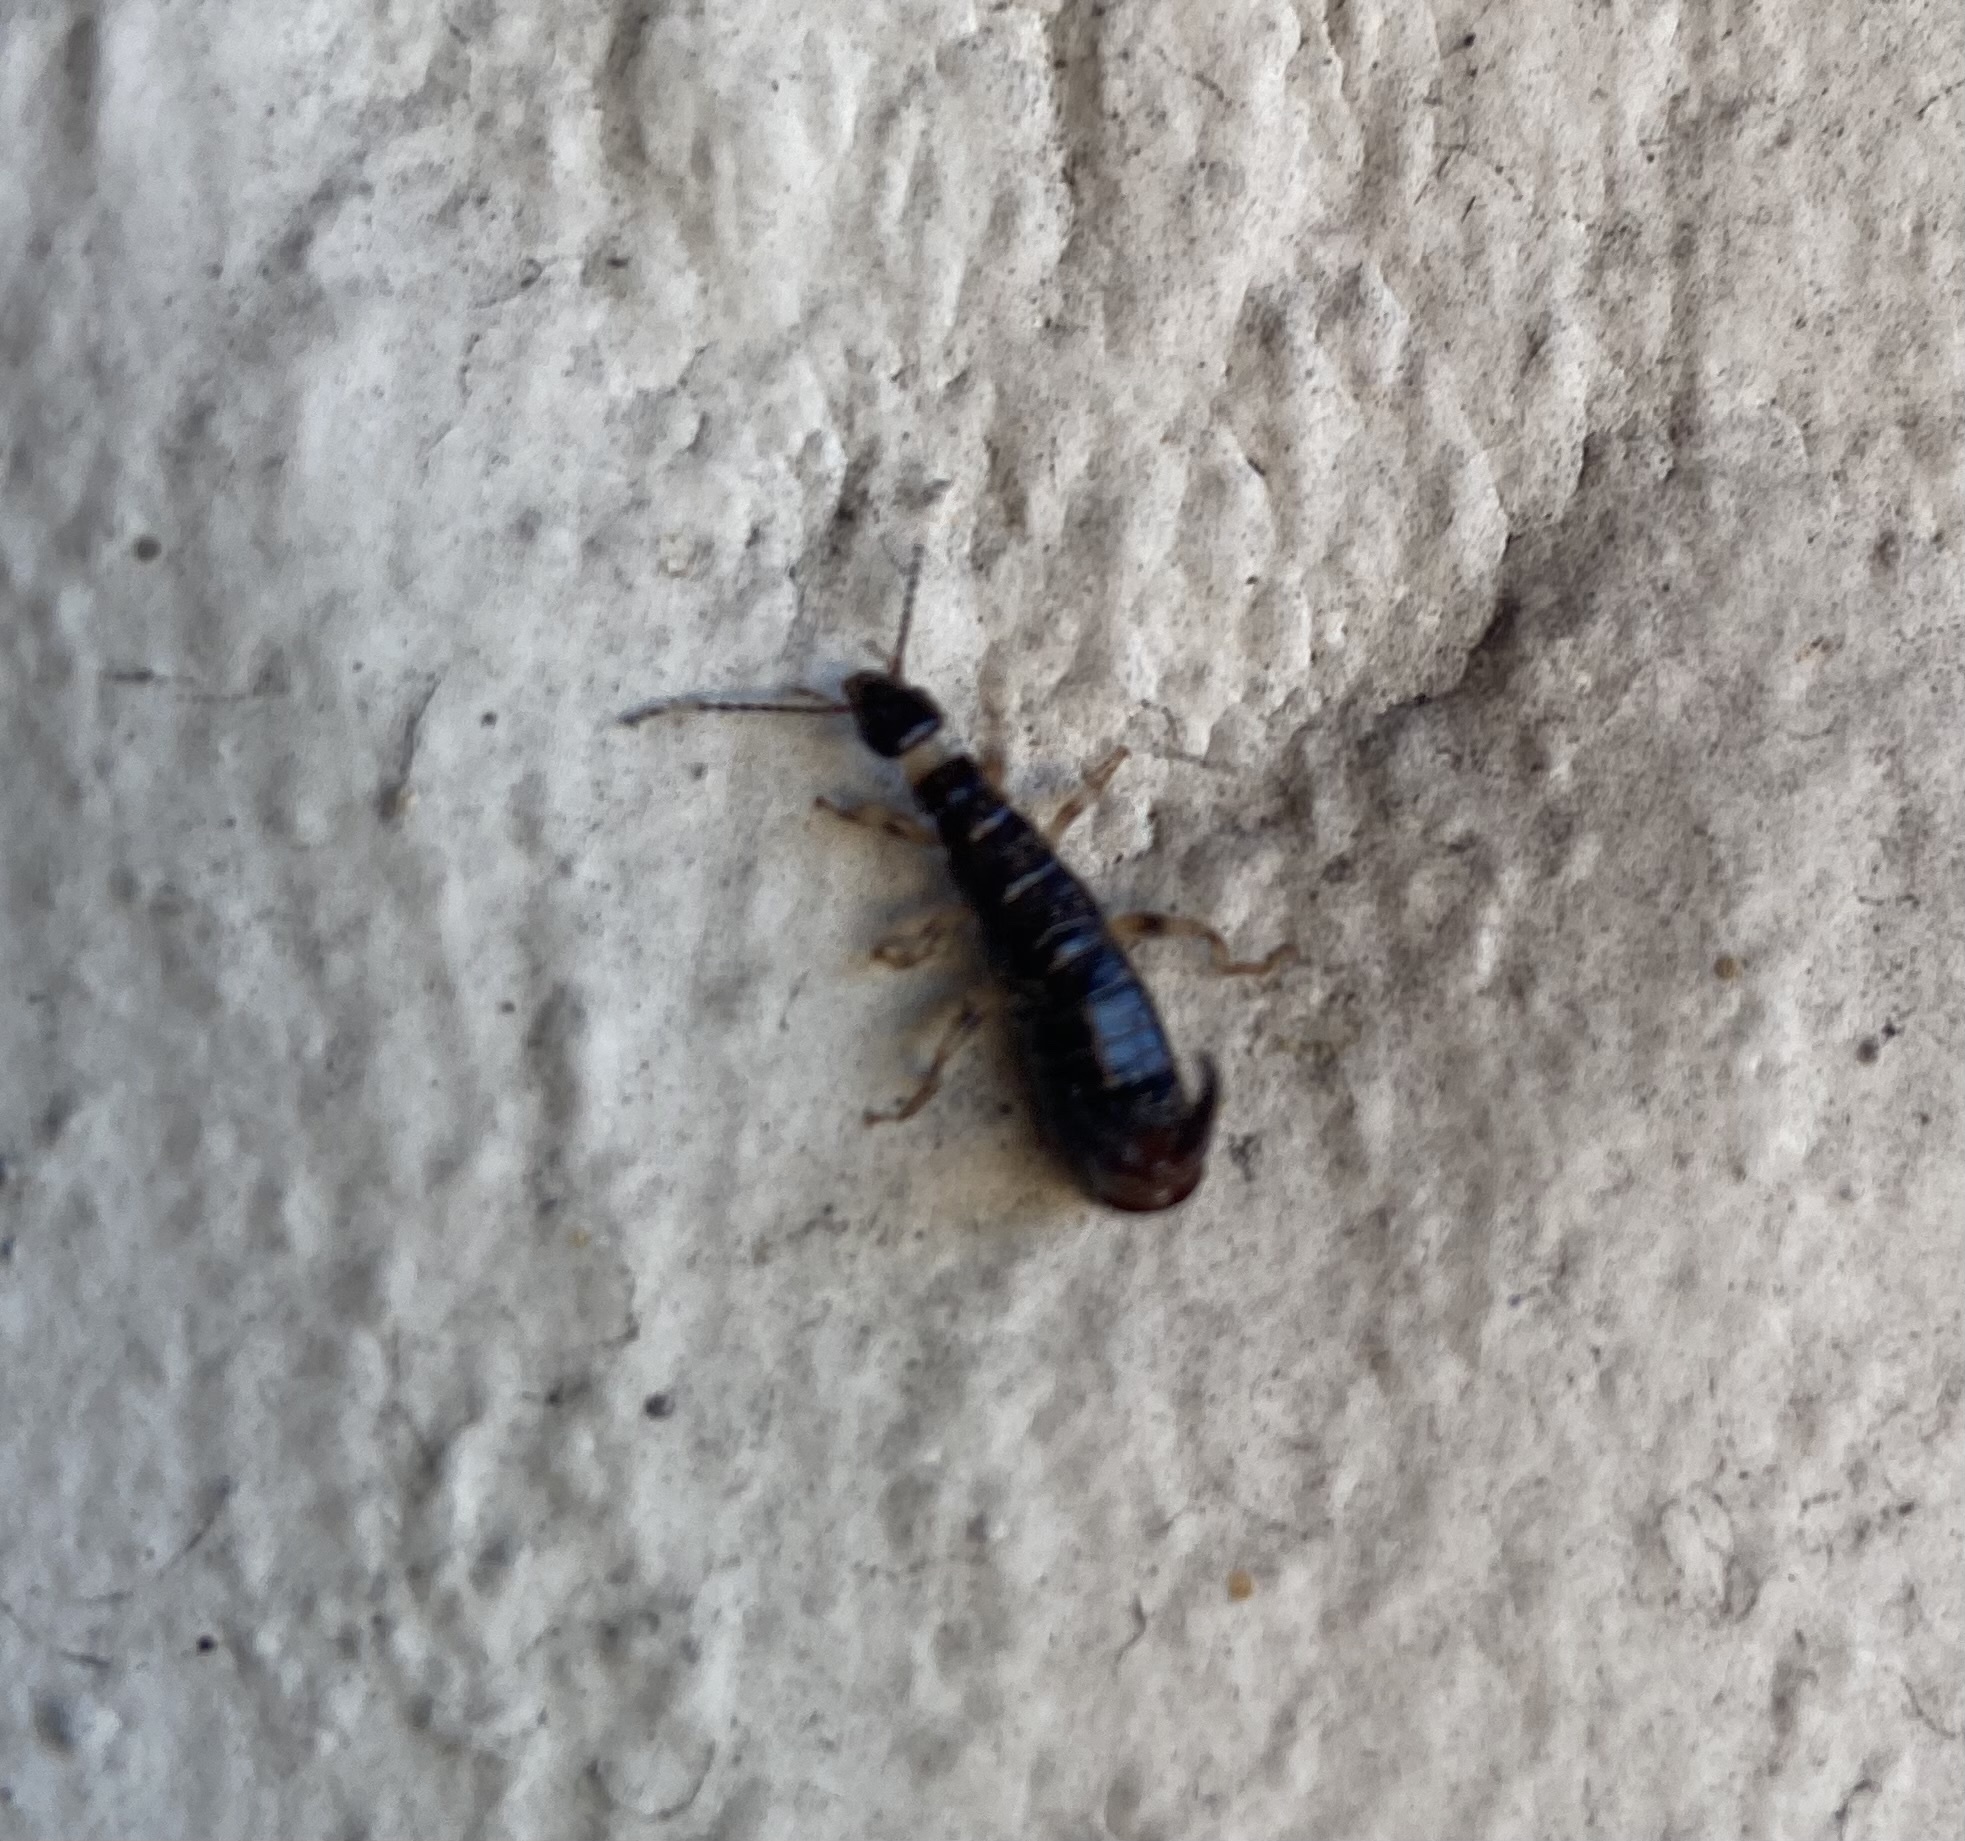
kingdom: Animalia
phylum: Arthropoda
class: Insecta
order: Dermaptera
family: Anisolabididae
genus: Euborellia
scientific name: Euborellia annulipes
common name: Ringlegged earwig
